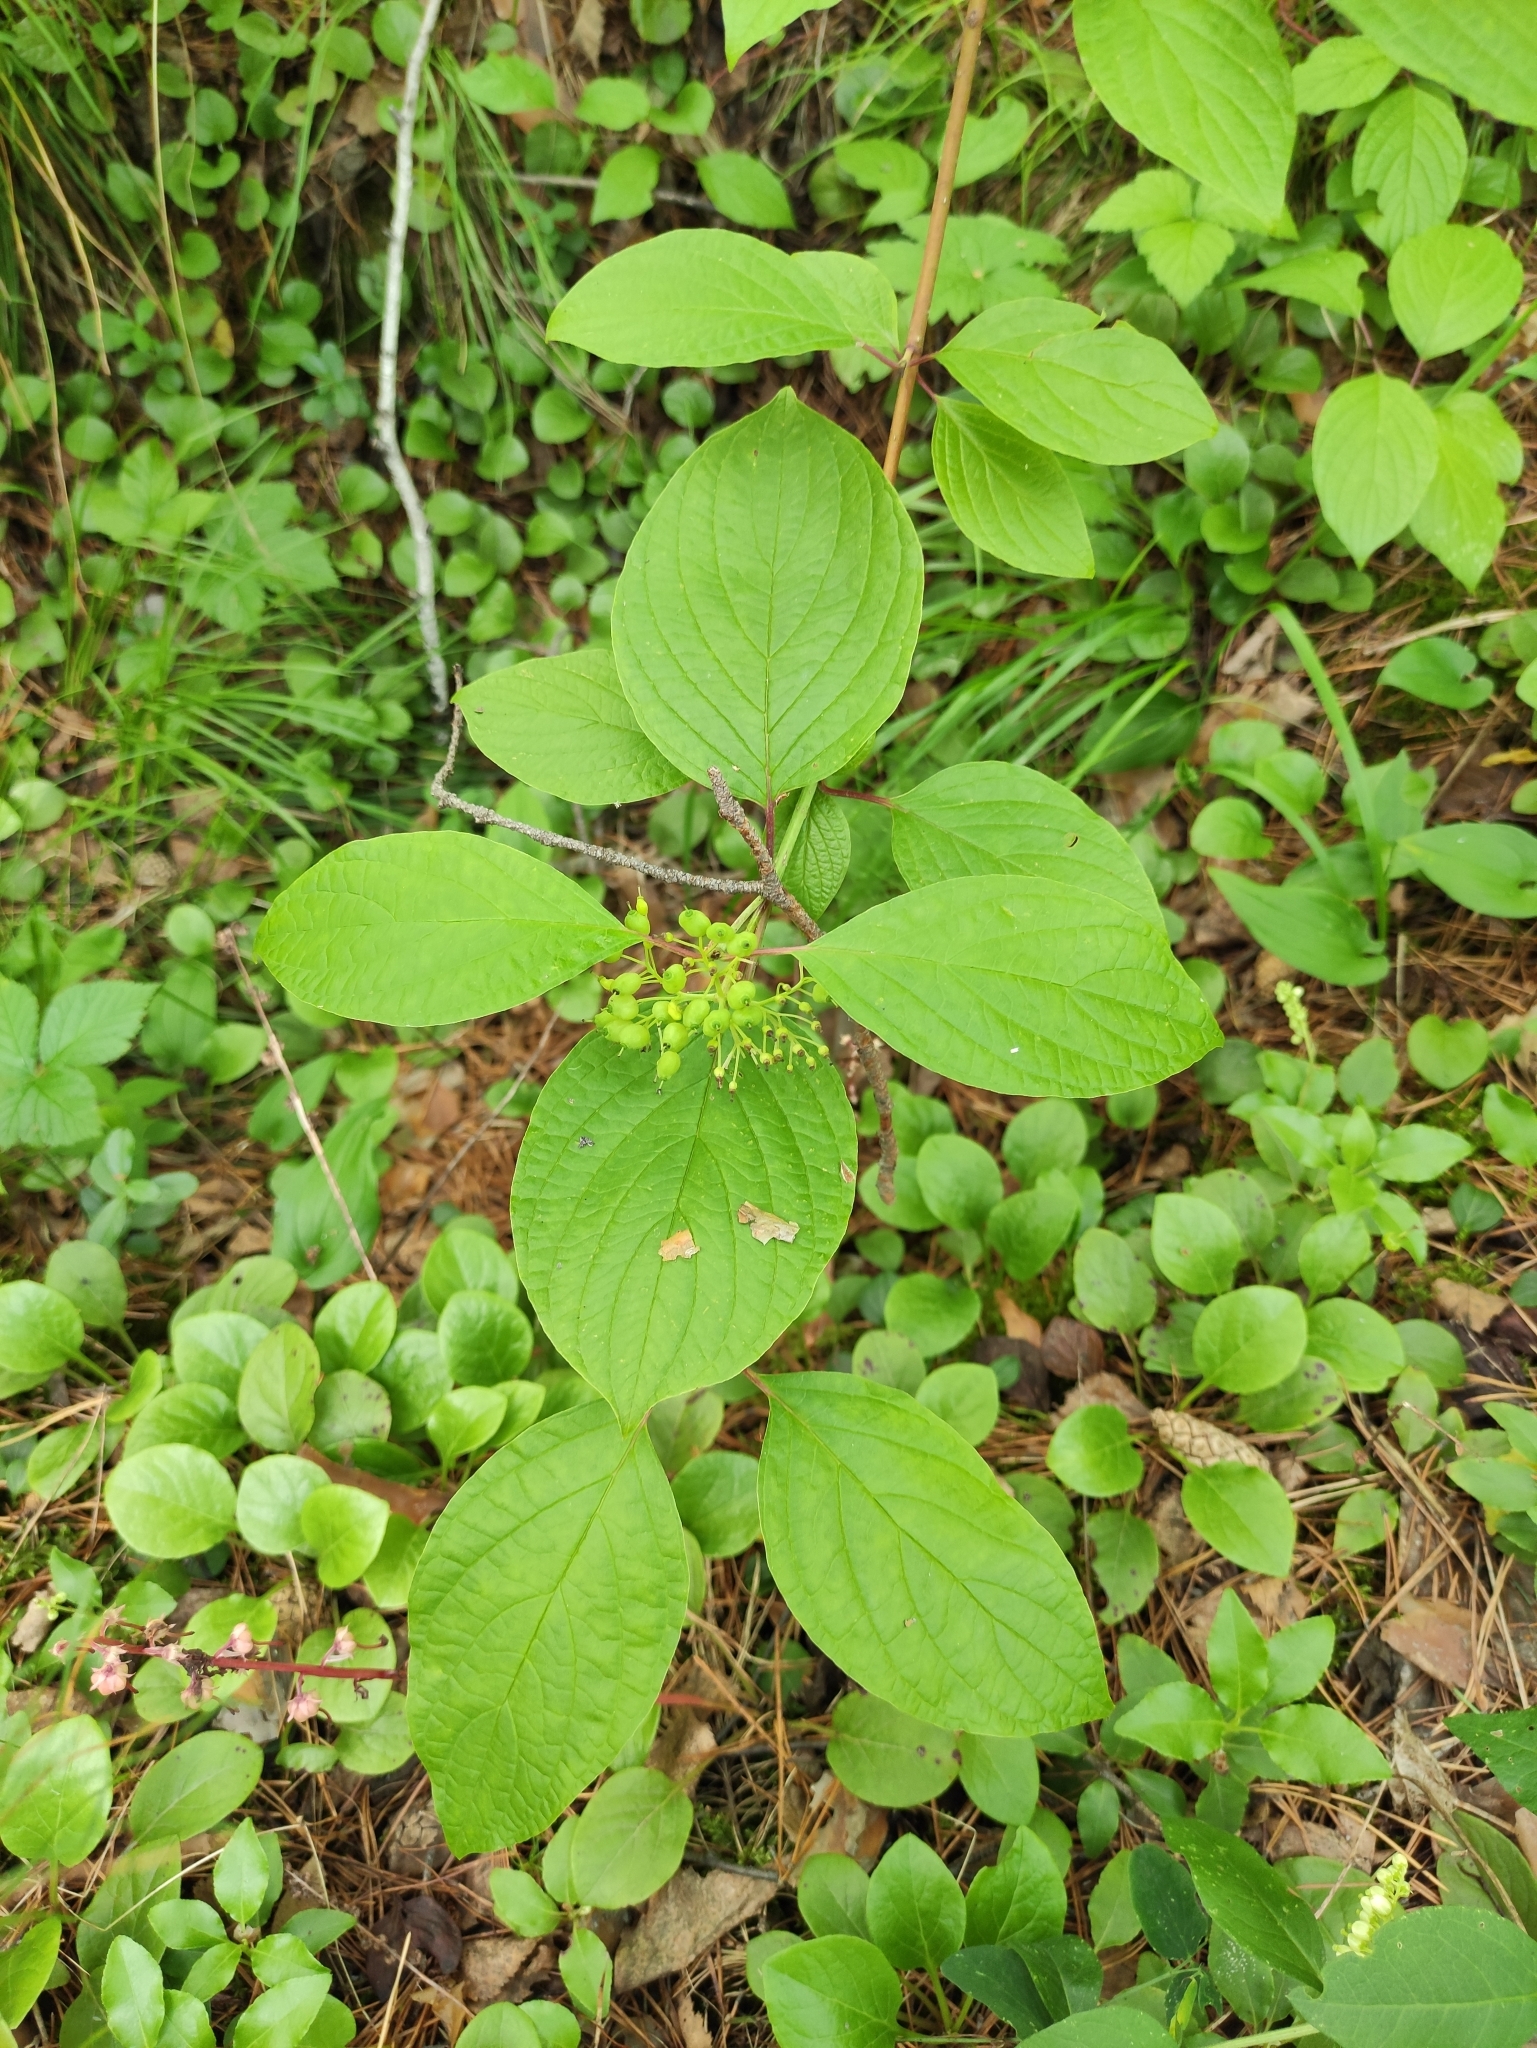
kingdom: Plantae
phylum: Tracheophyta
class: Magnoliopsida
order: Cornales
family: Cornaceae
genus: Cornus
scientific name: Cornus alba
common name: White dogwood
